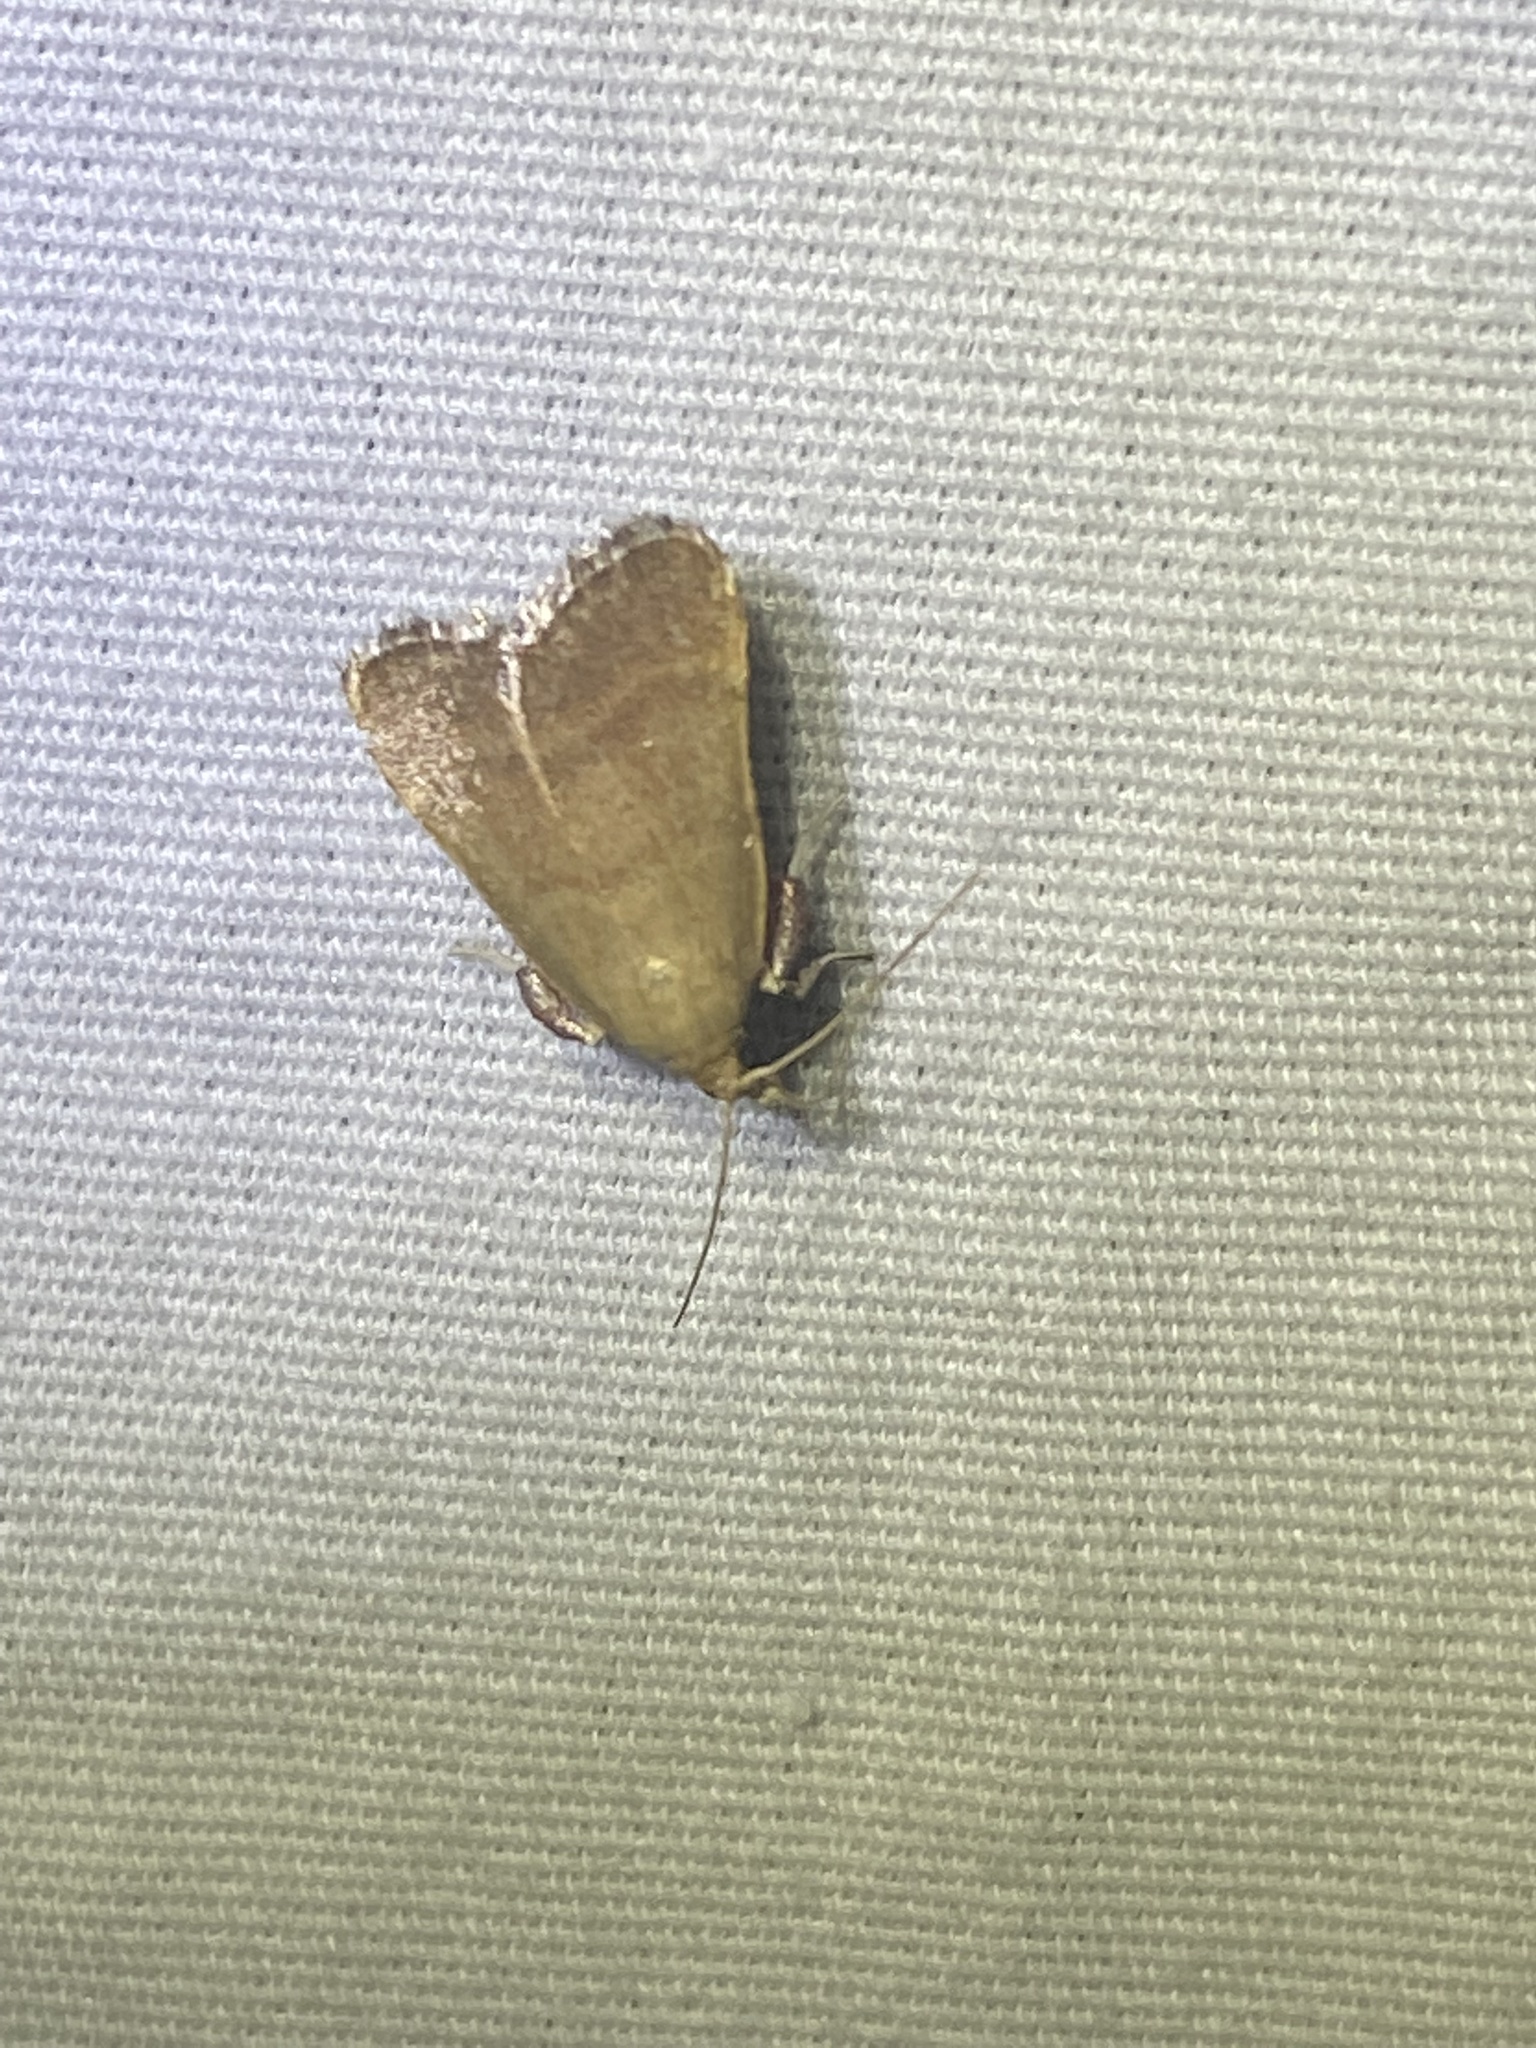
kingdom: Animalia
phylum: Arthropoda
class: Insecta
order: Lepidoptera
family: Pyralidae
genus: Condylolomia
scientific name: Condylolomia participialis
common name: Drab condylolomia moth
